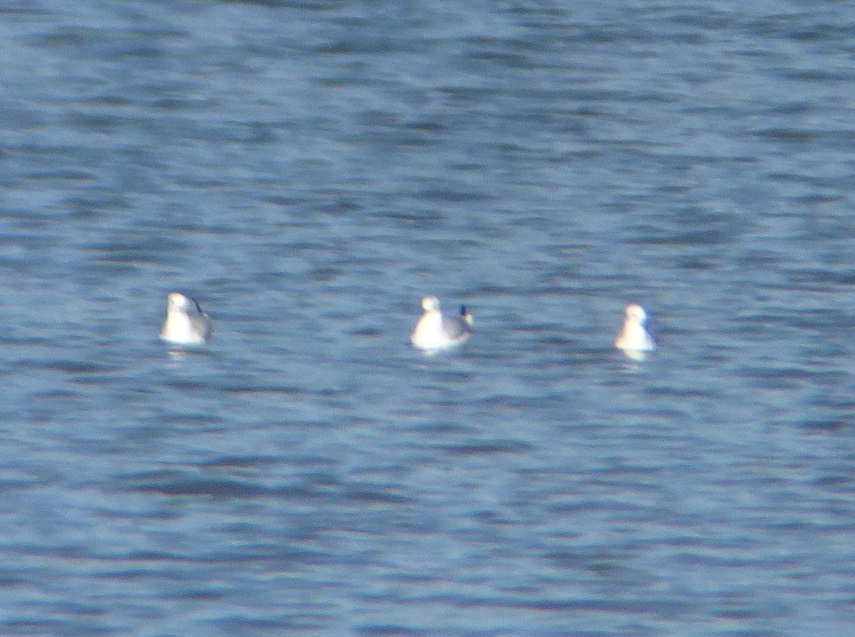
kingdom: Animalia
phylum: Chordata
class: Aves
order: Charadriiformes
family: Laridae
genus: Chroicocephalus
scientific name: Chroicocephalus philadelphia
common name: Bonaparte's gull
